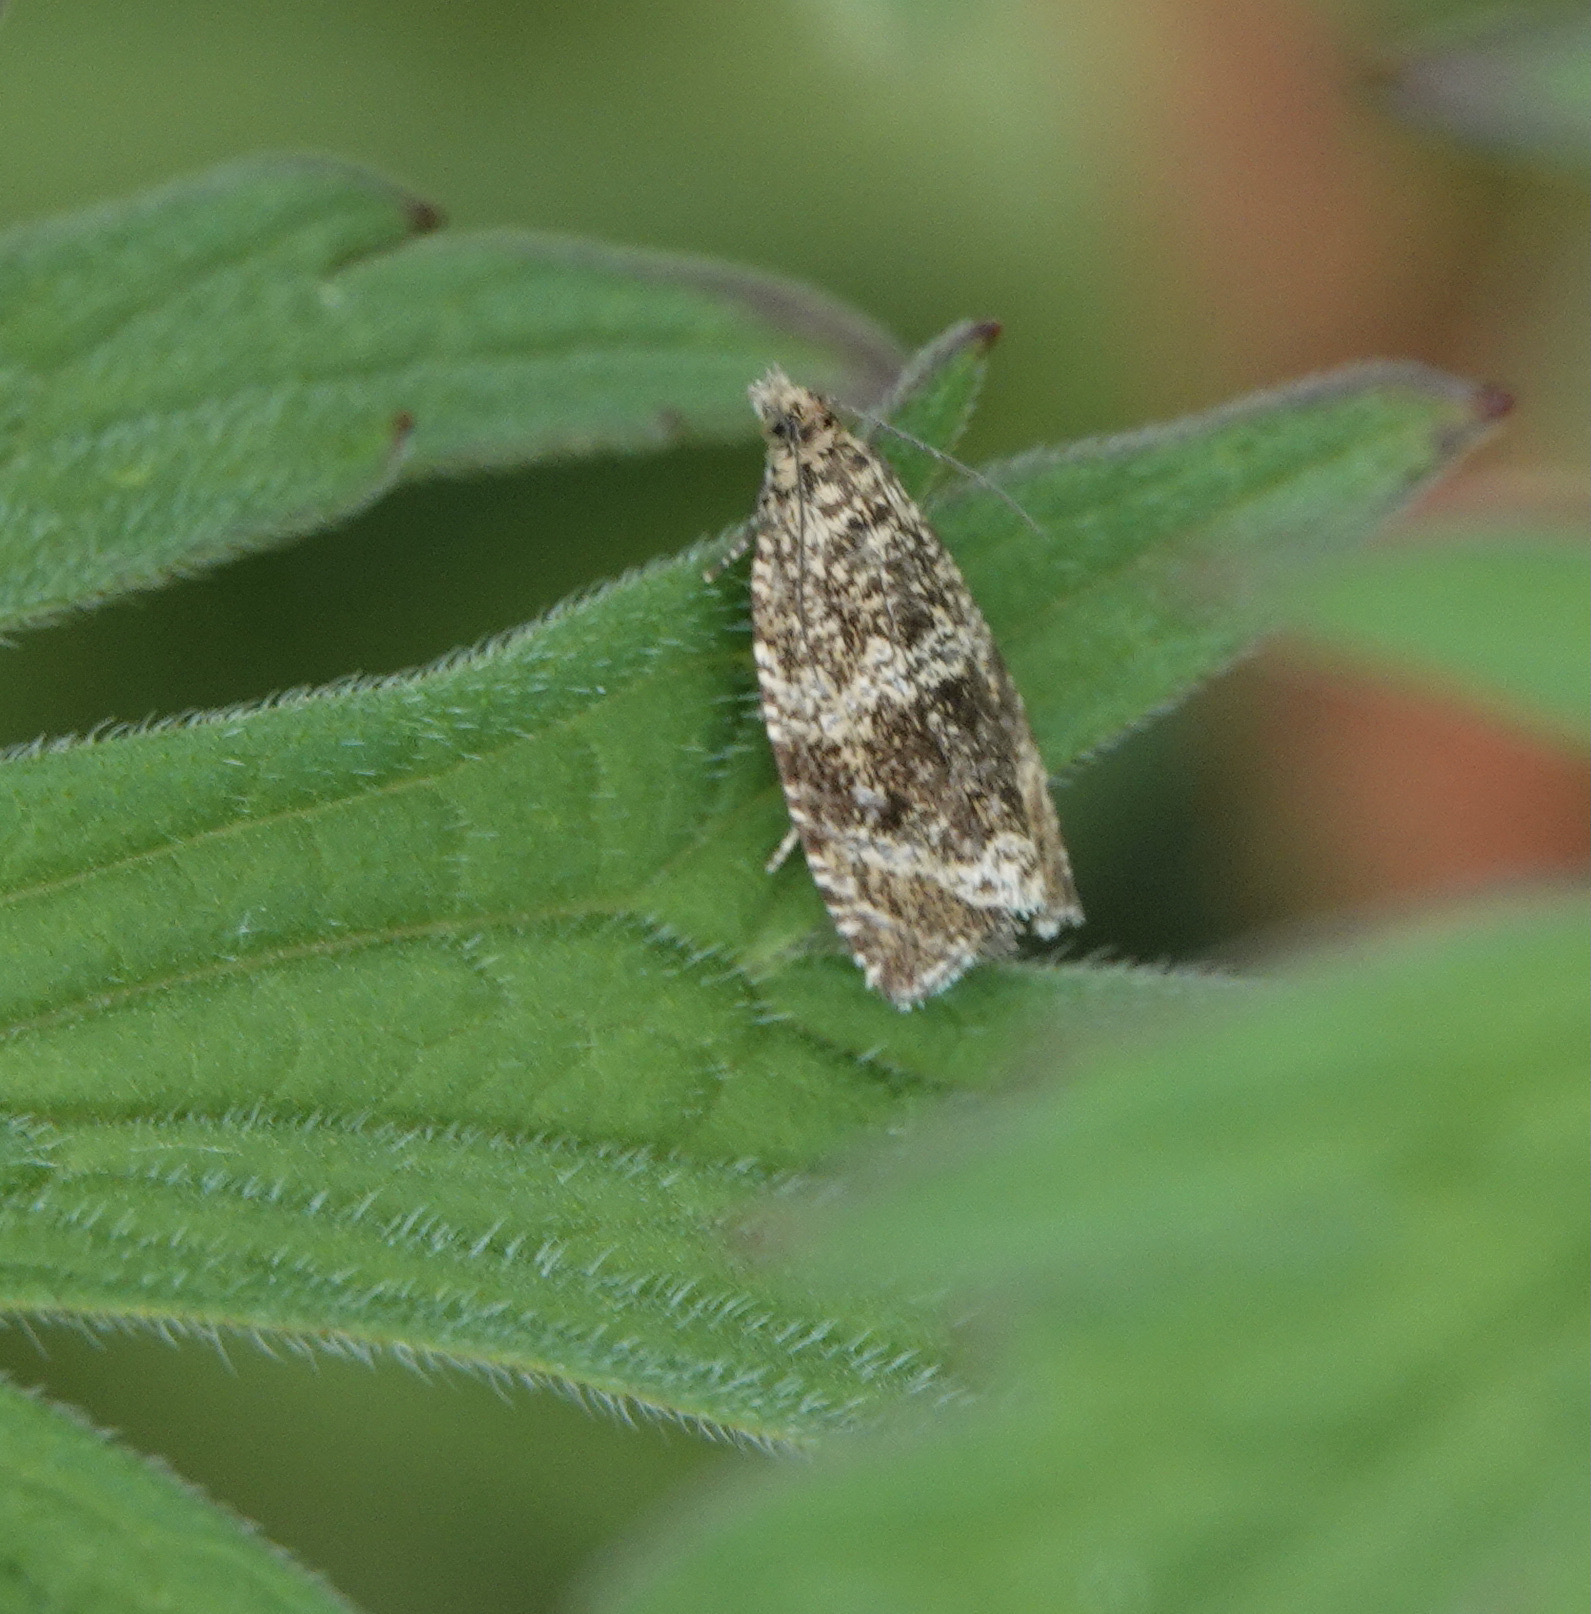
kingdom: Animalia
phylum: Arthropoda
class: Insecta
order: Lepidoptera
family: Tortricidae
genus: Syricoris
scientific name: Syricoris lacunana
